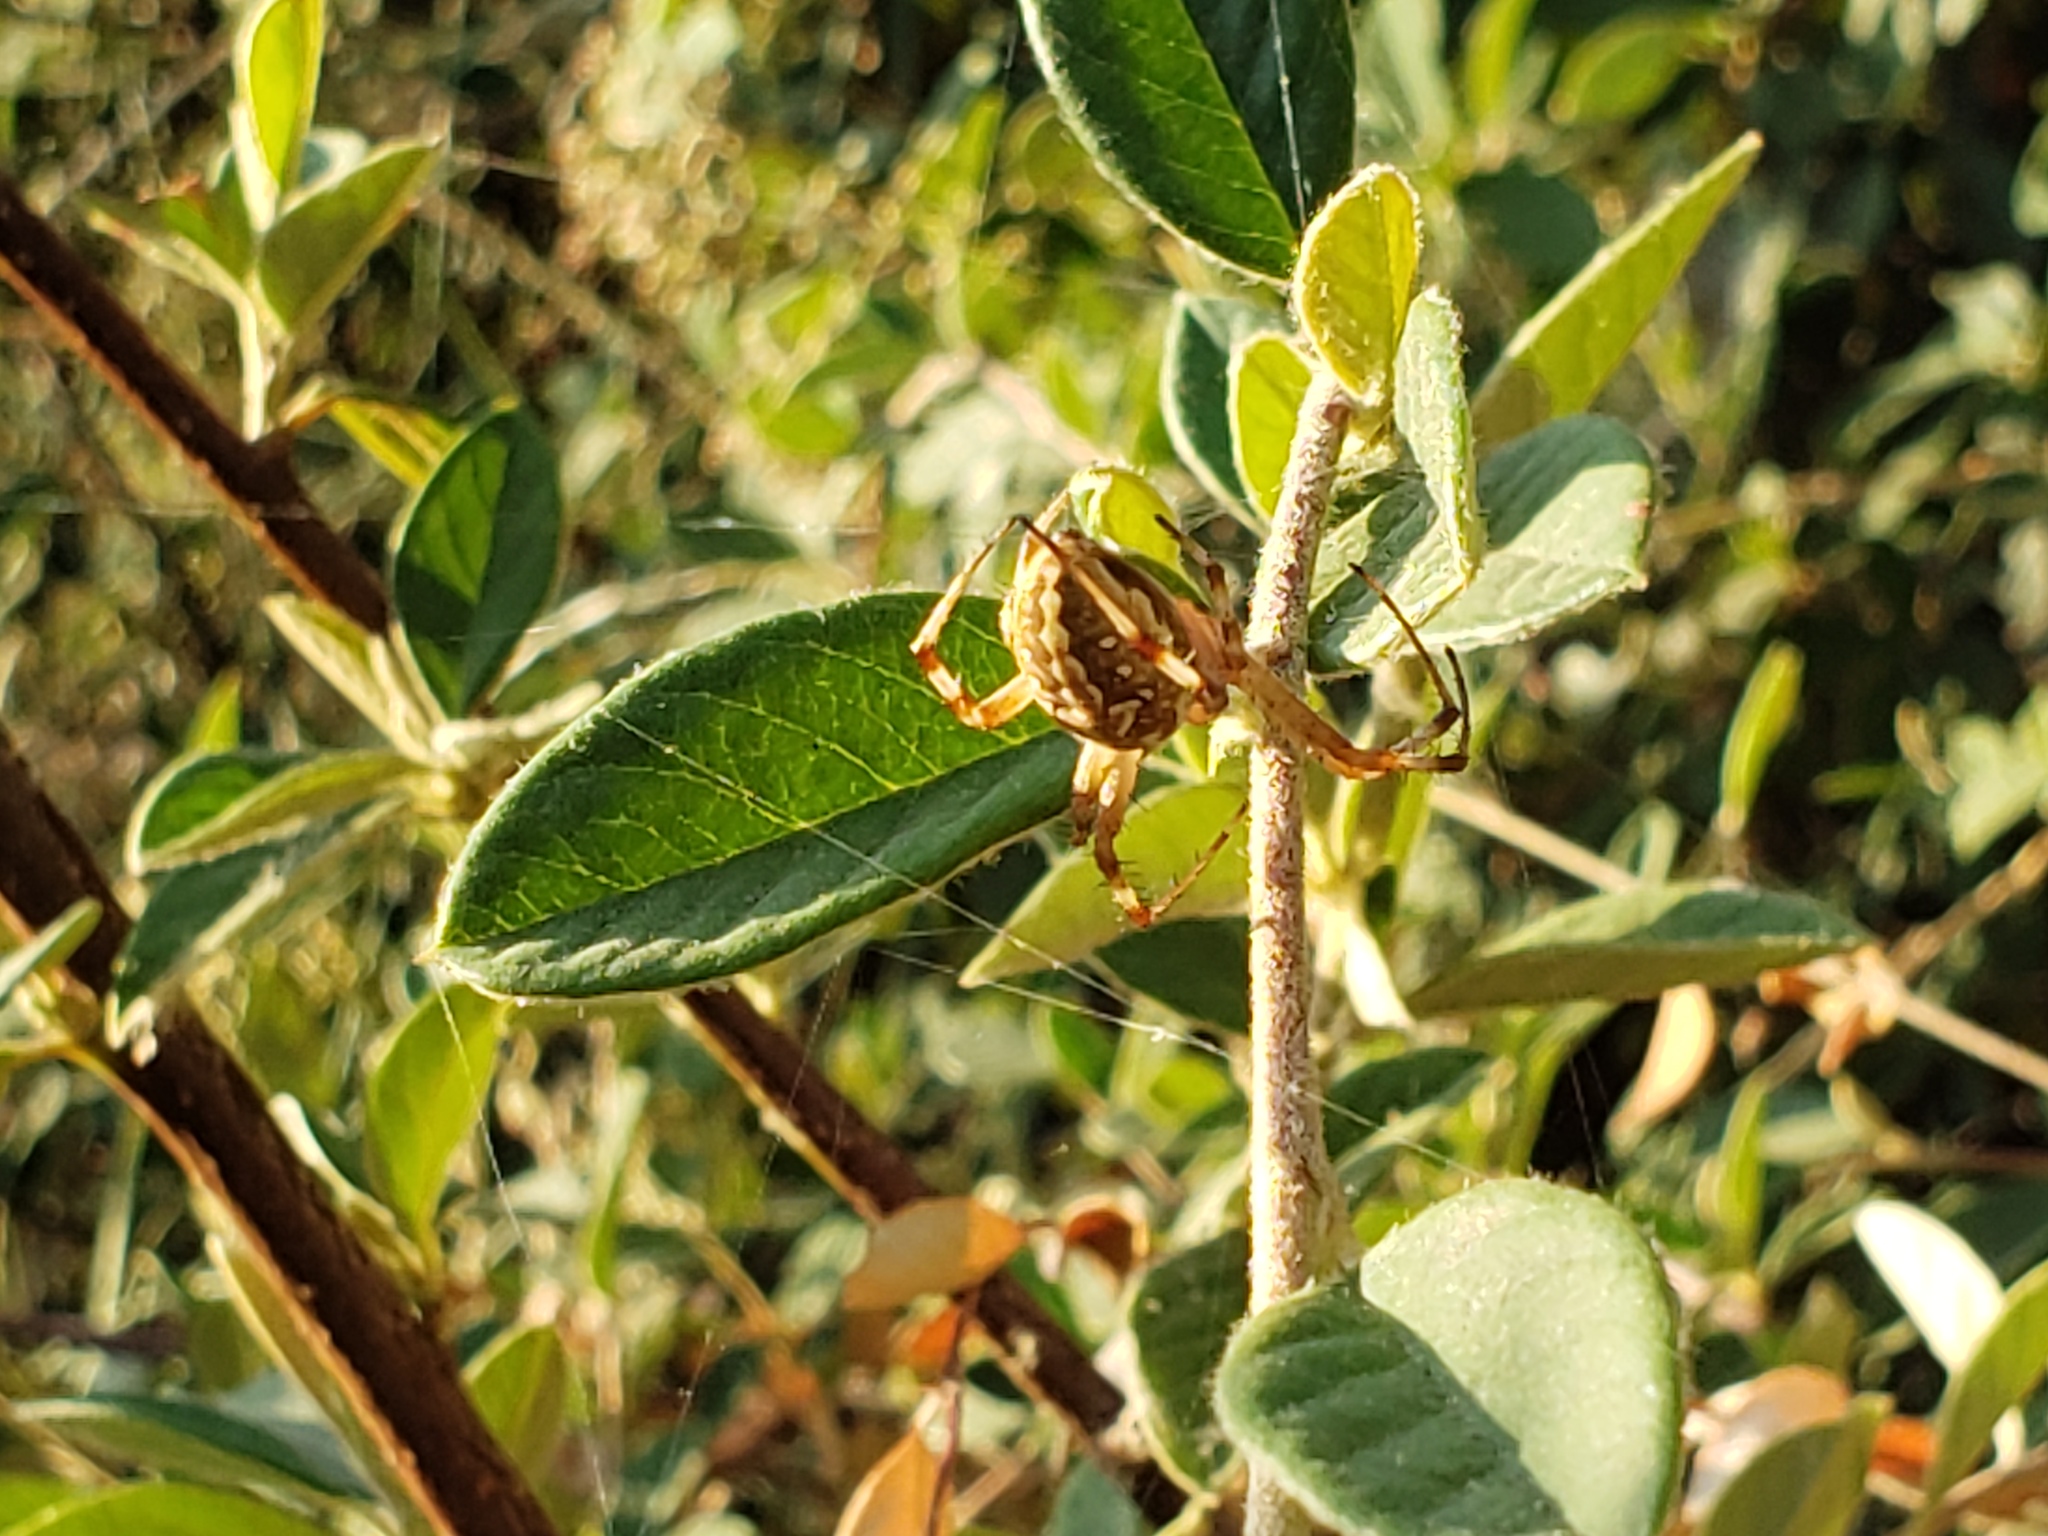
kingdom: Animalia
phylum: Arthropoda
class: Arachnida
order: Araneae
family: Araneidae
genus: Neoscona
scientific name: Neoscona oaxacensis
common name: Orb weavers
